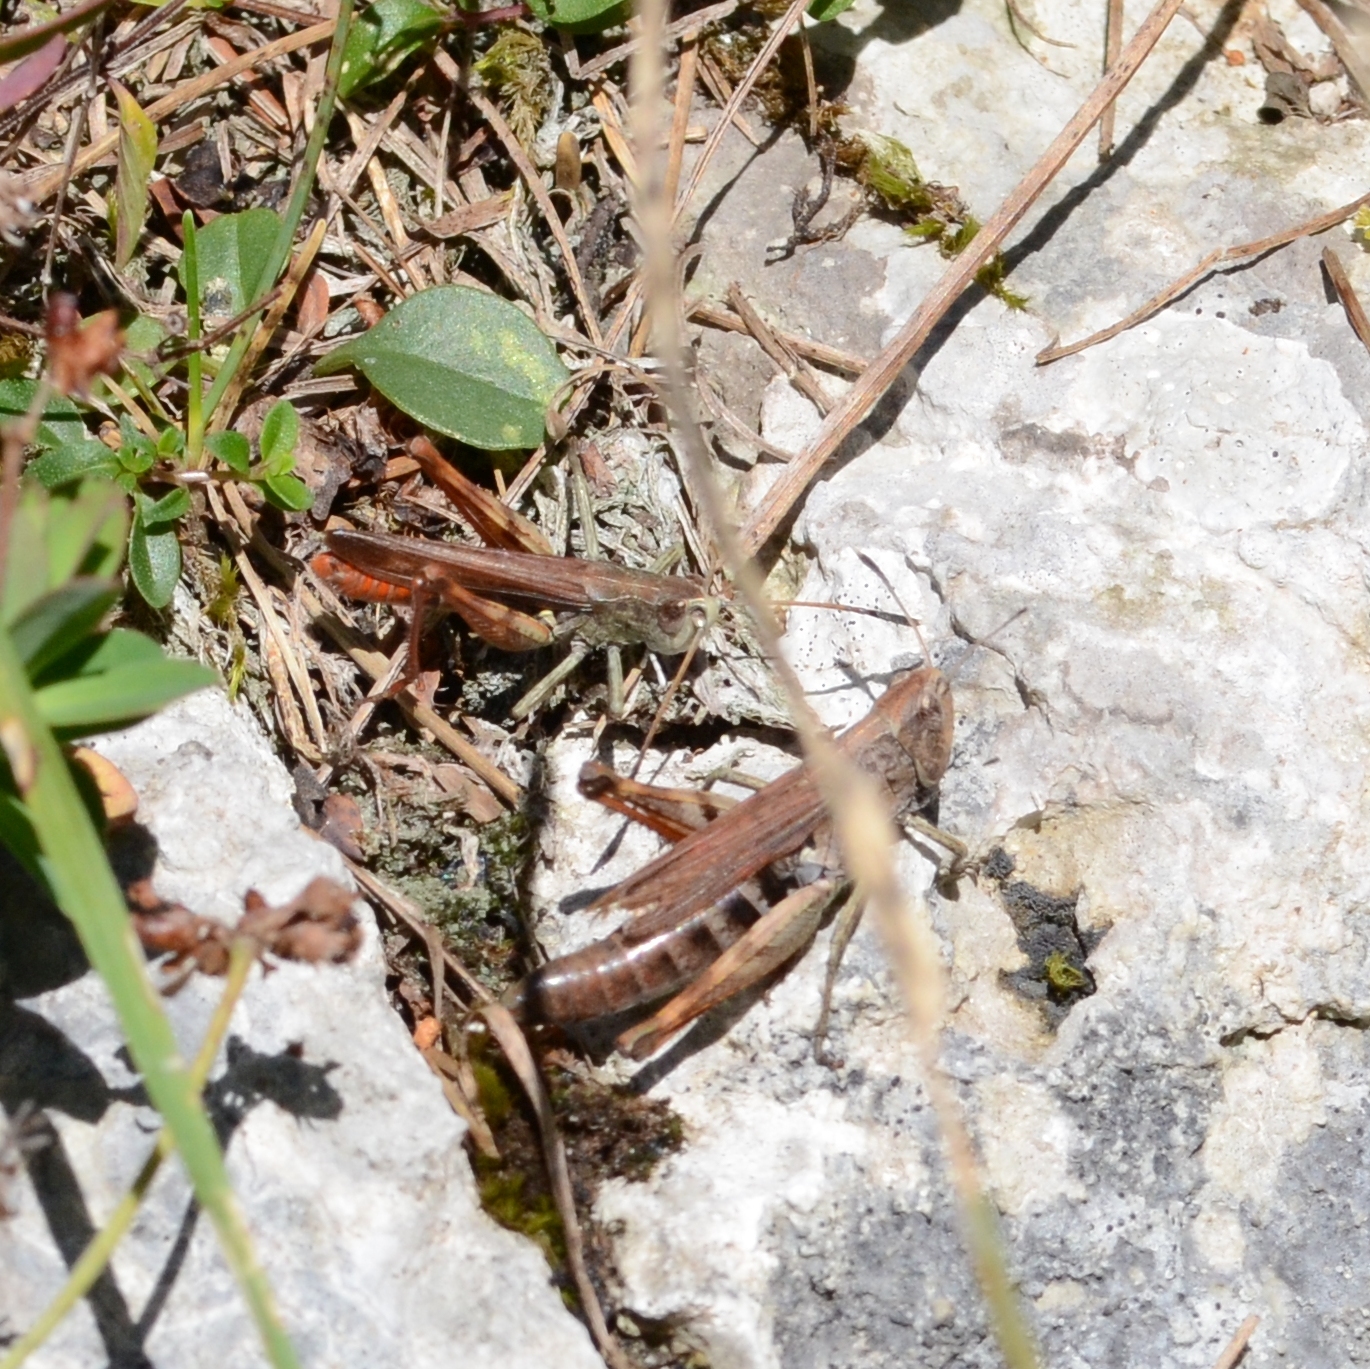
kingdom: Animalia
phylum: Arthropoda
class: Insecta
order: Orthoptera
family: Acrididae
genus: Gomphocerippus
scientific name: Gomphocerippus rufus
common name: Rufous grasshopper
